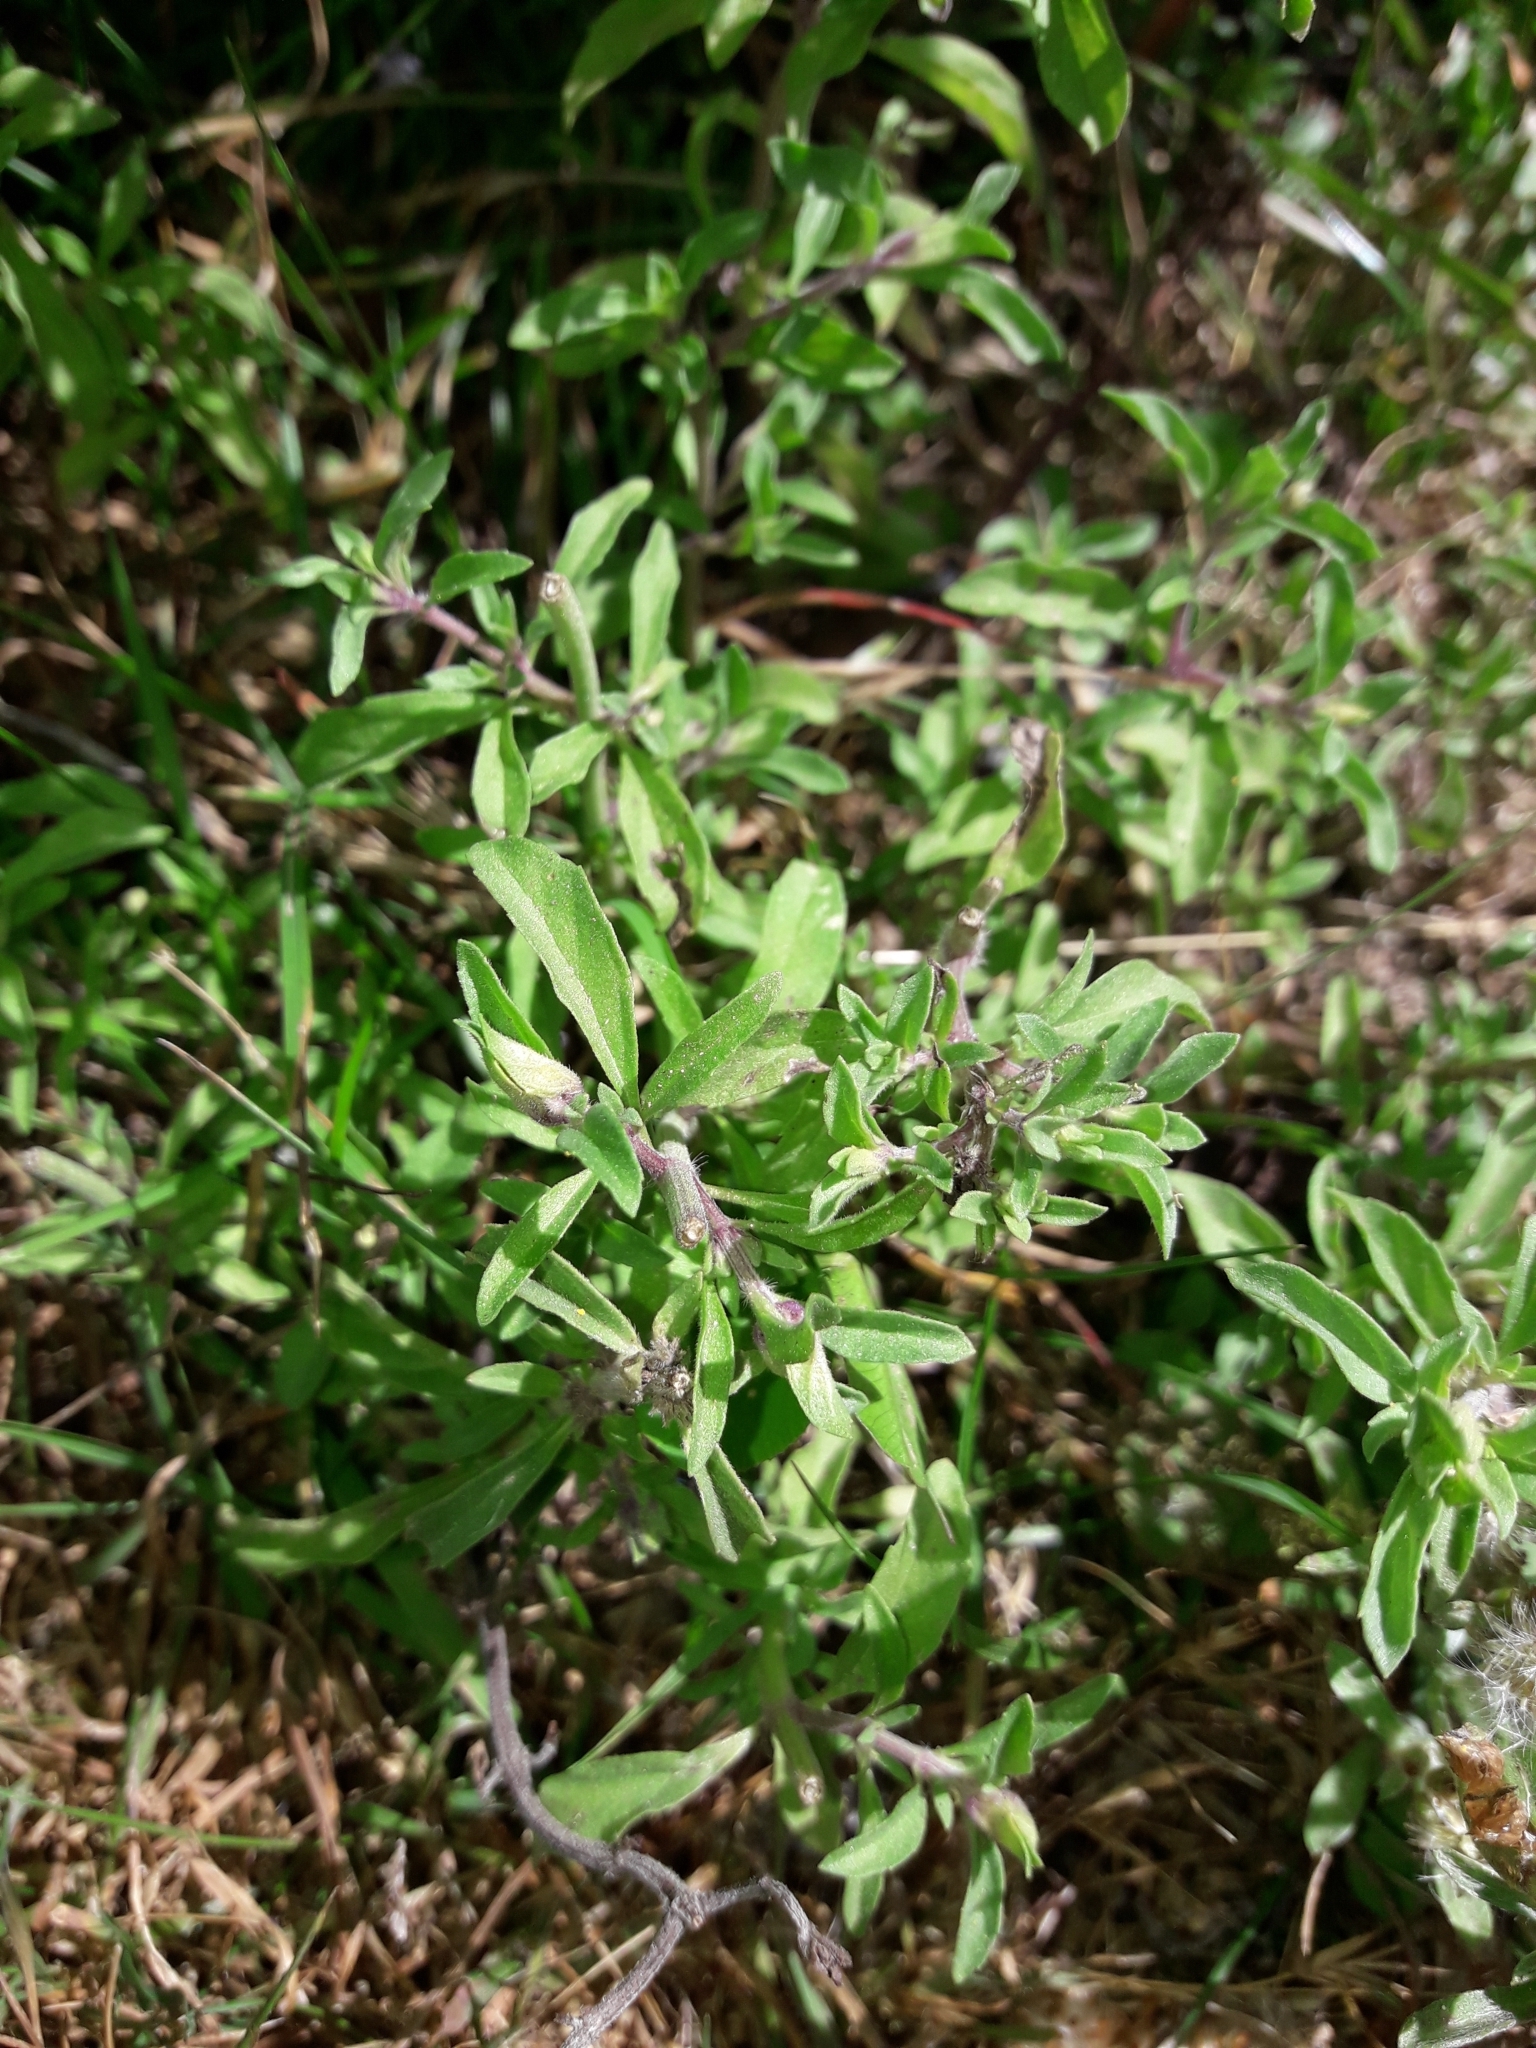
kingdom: Plantae
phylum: Tracheophyta
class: Magnoliopsida
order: Lamiales
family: Lamiaceae
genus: Mentha
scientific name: Mentha pulegium
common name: Pennyroyal
